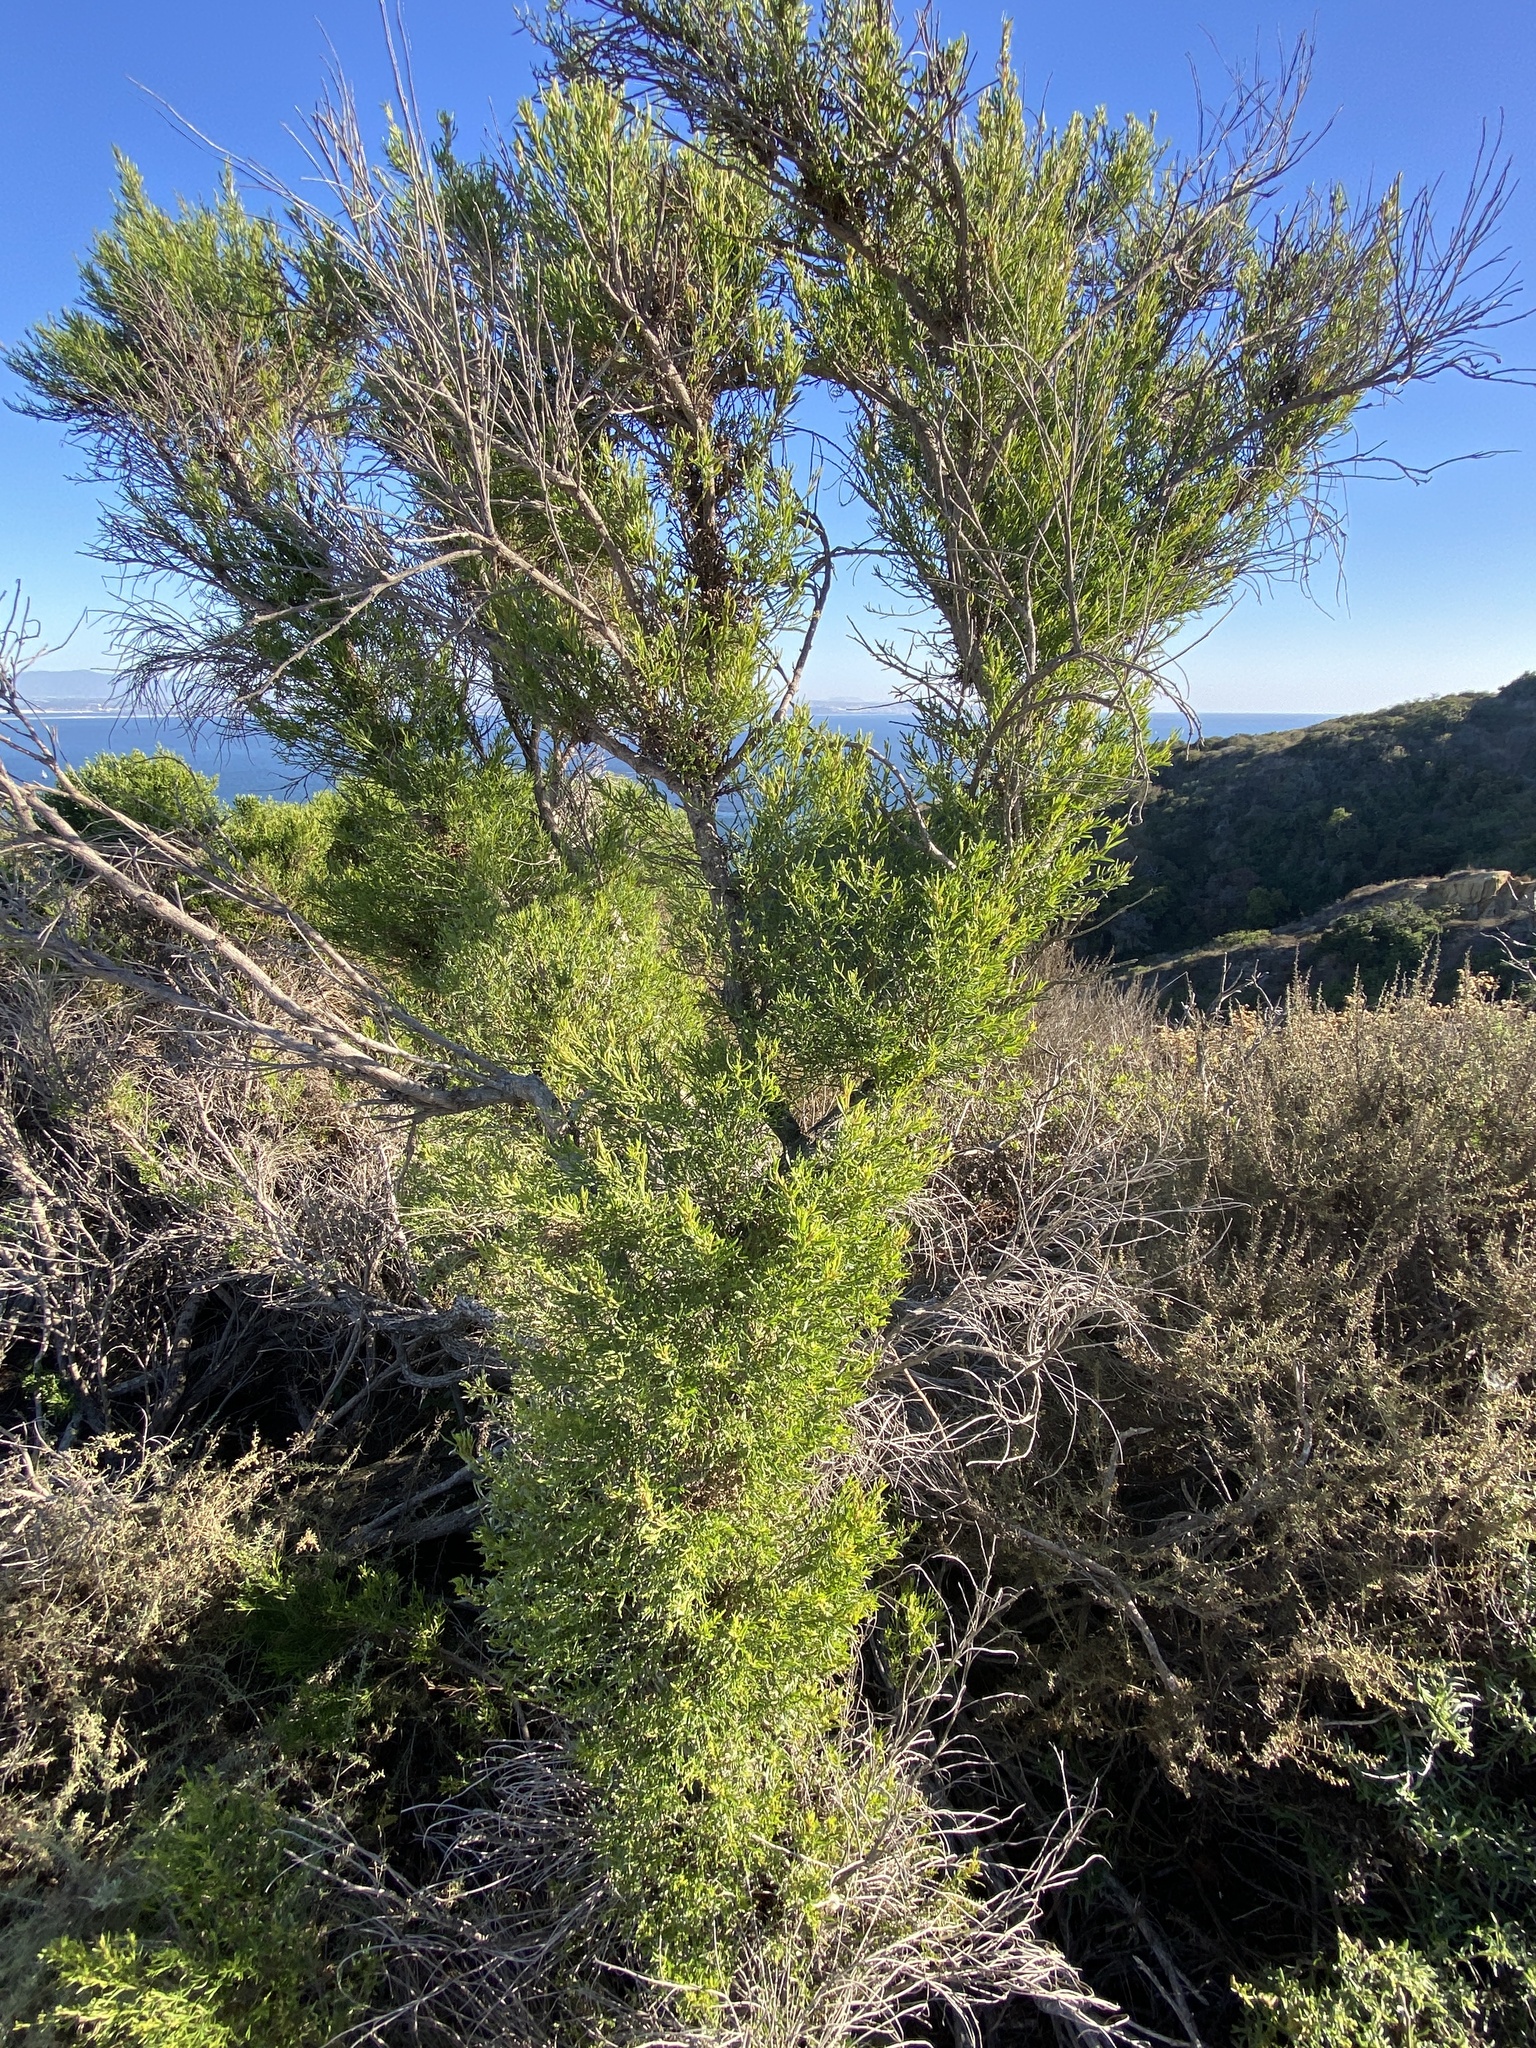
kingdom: Plantae
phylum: Tracheophyta
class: Magnoliopsida
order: Asterales
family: Asteraceae
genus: Baccharis
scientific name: Baccharis sarothroides
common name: Desert-broom
